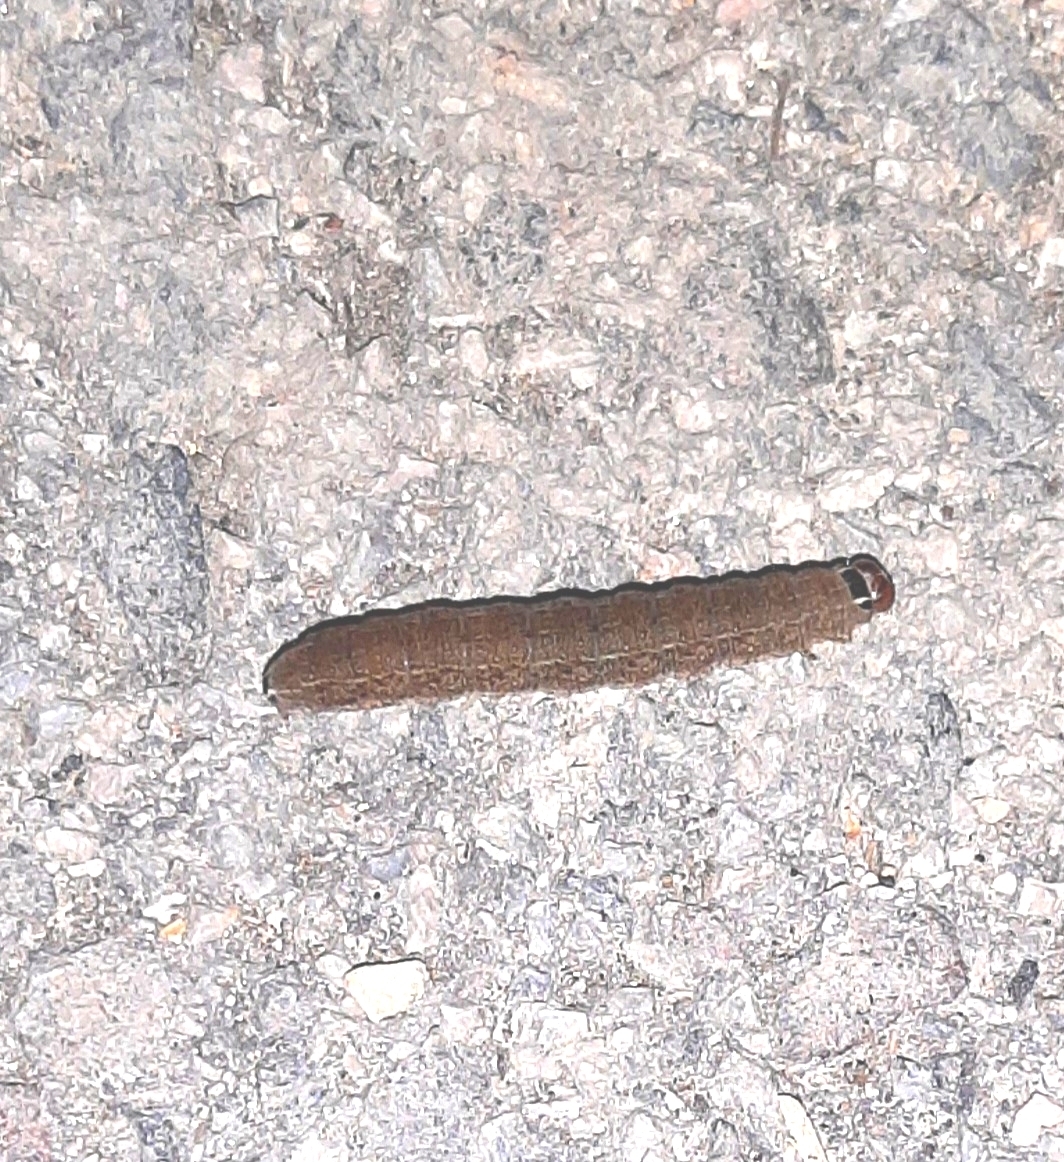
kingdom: Animalia
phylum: Arthropoda
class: Insecta
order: Lepidoptera
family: Noctuidae
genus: Conistra
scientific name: Conistra rubiginosa
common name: Black-spotted chestnut
